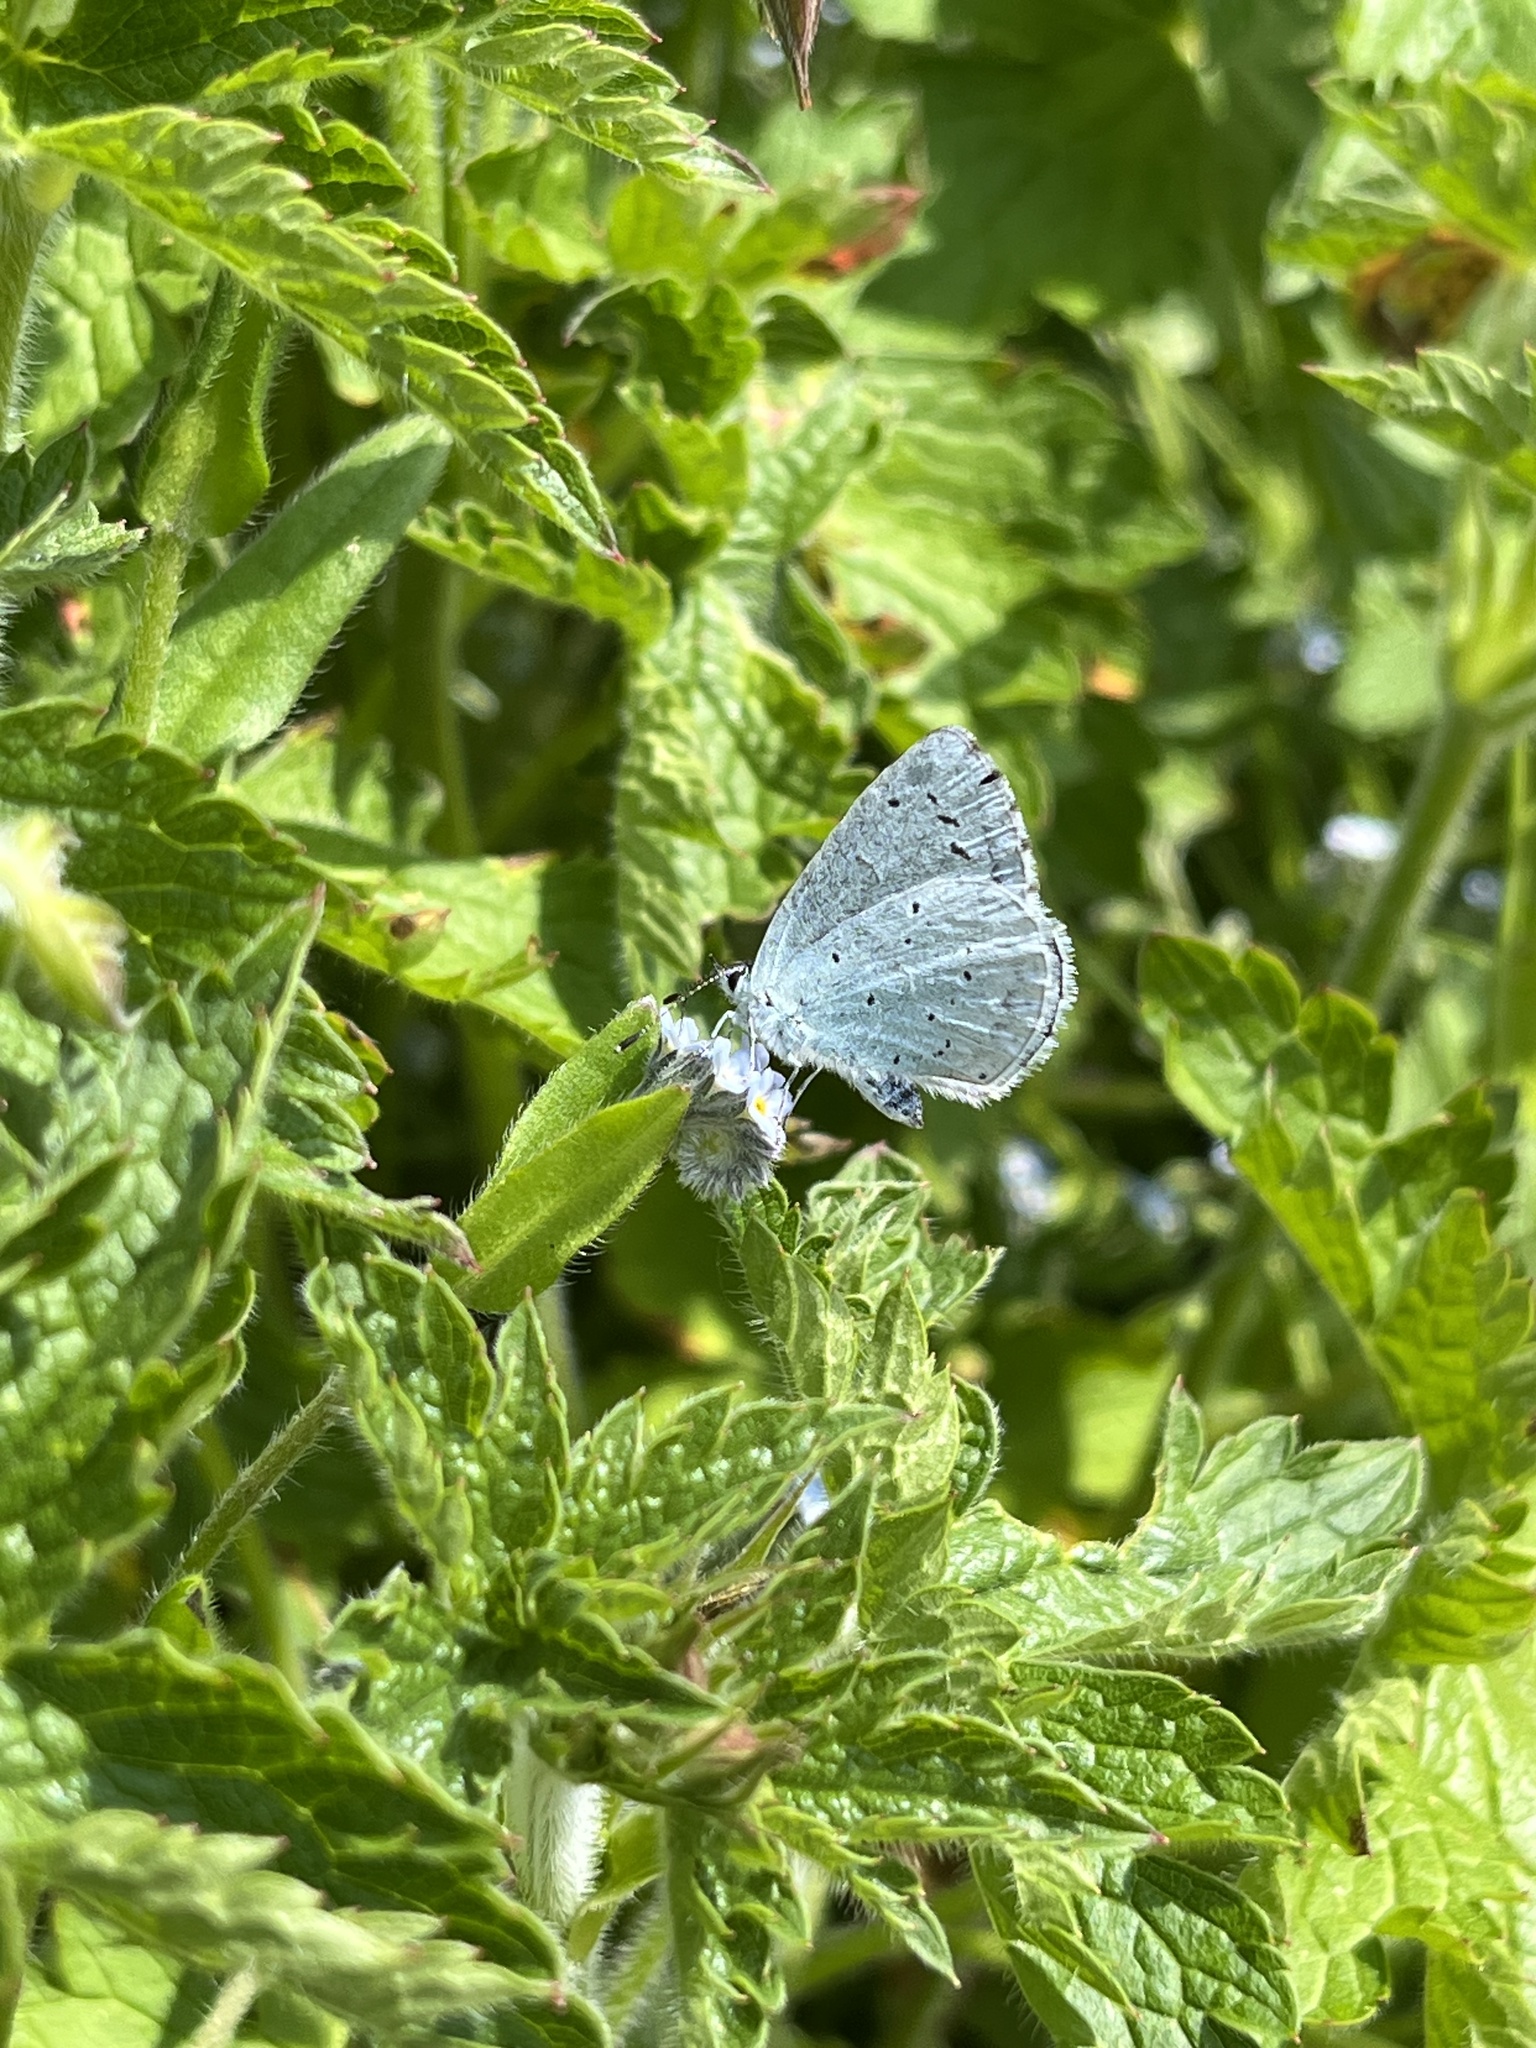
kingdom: Animalia
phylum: Arthropoda
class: Insecta
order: Lepidoptera
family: Lycaenidae
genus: Celastrina
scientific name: Celastrina argiolus
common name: Holly blue
